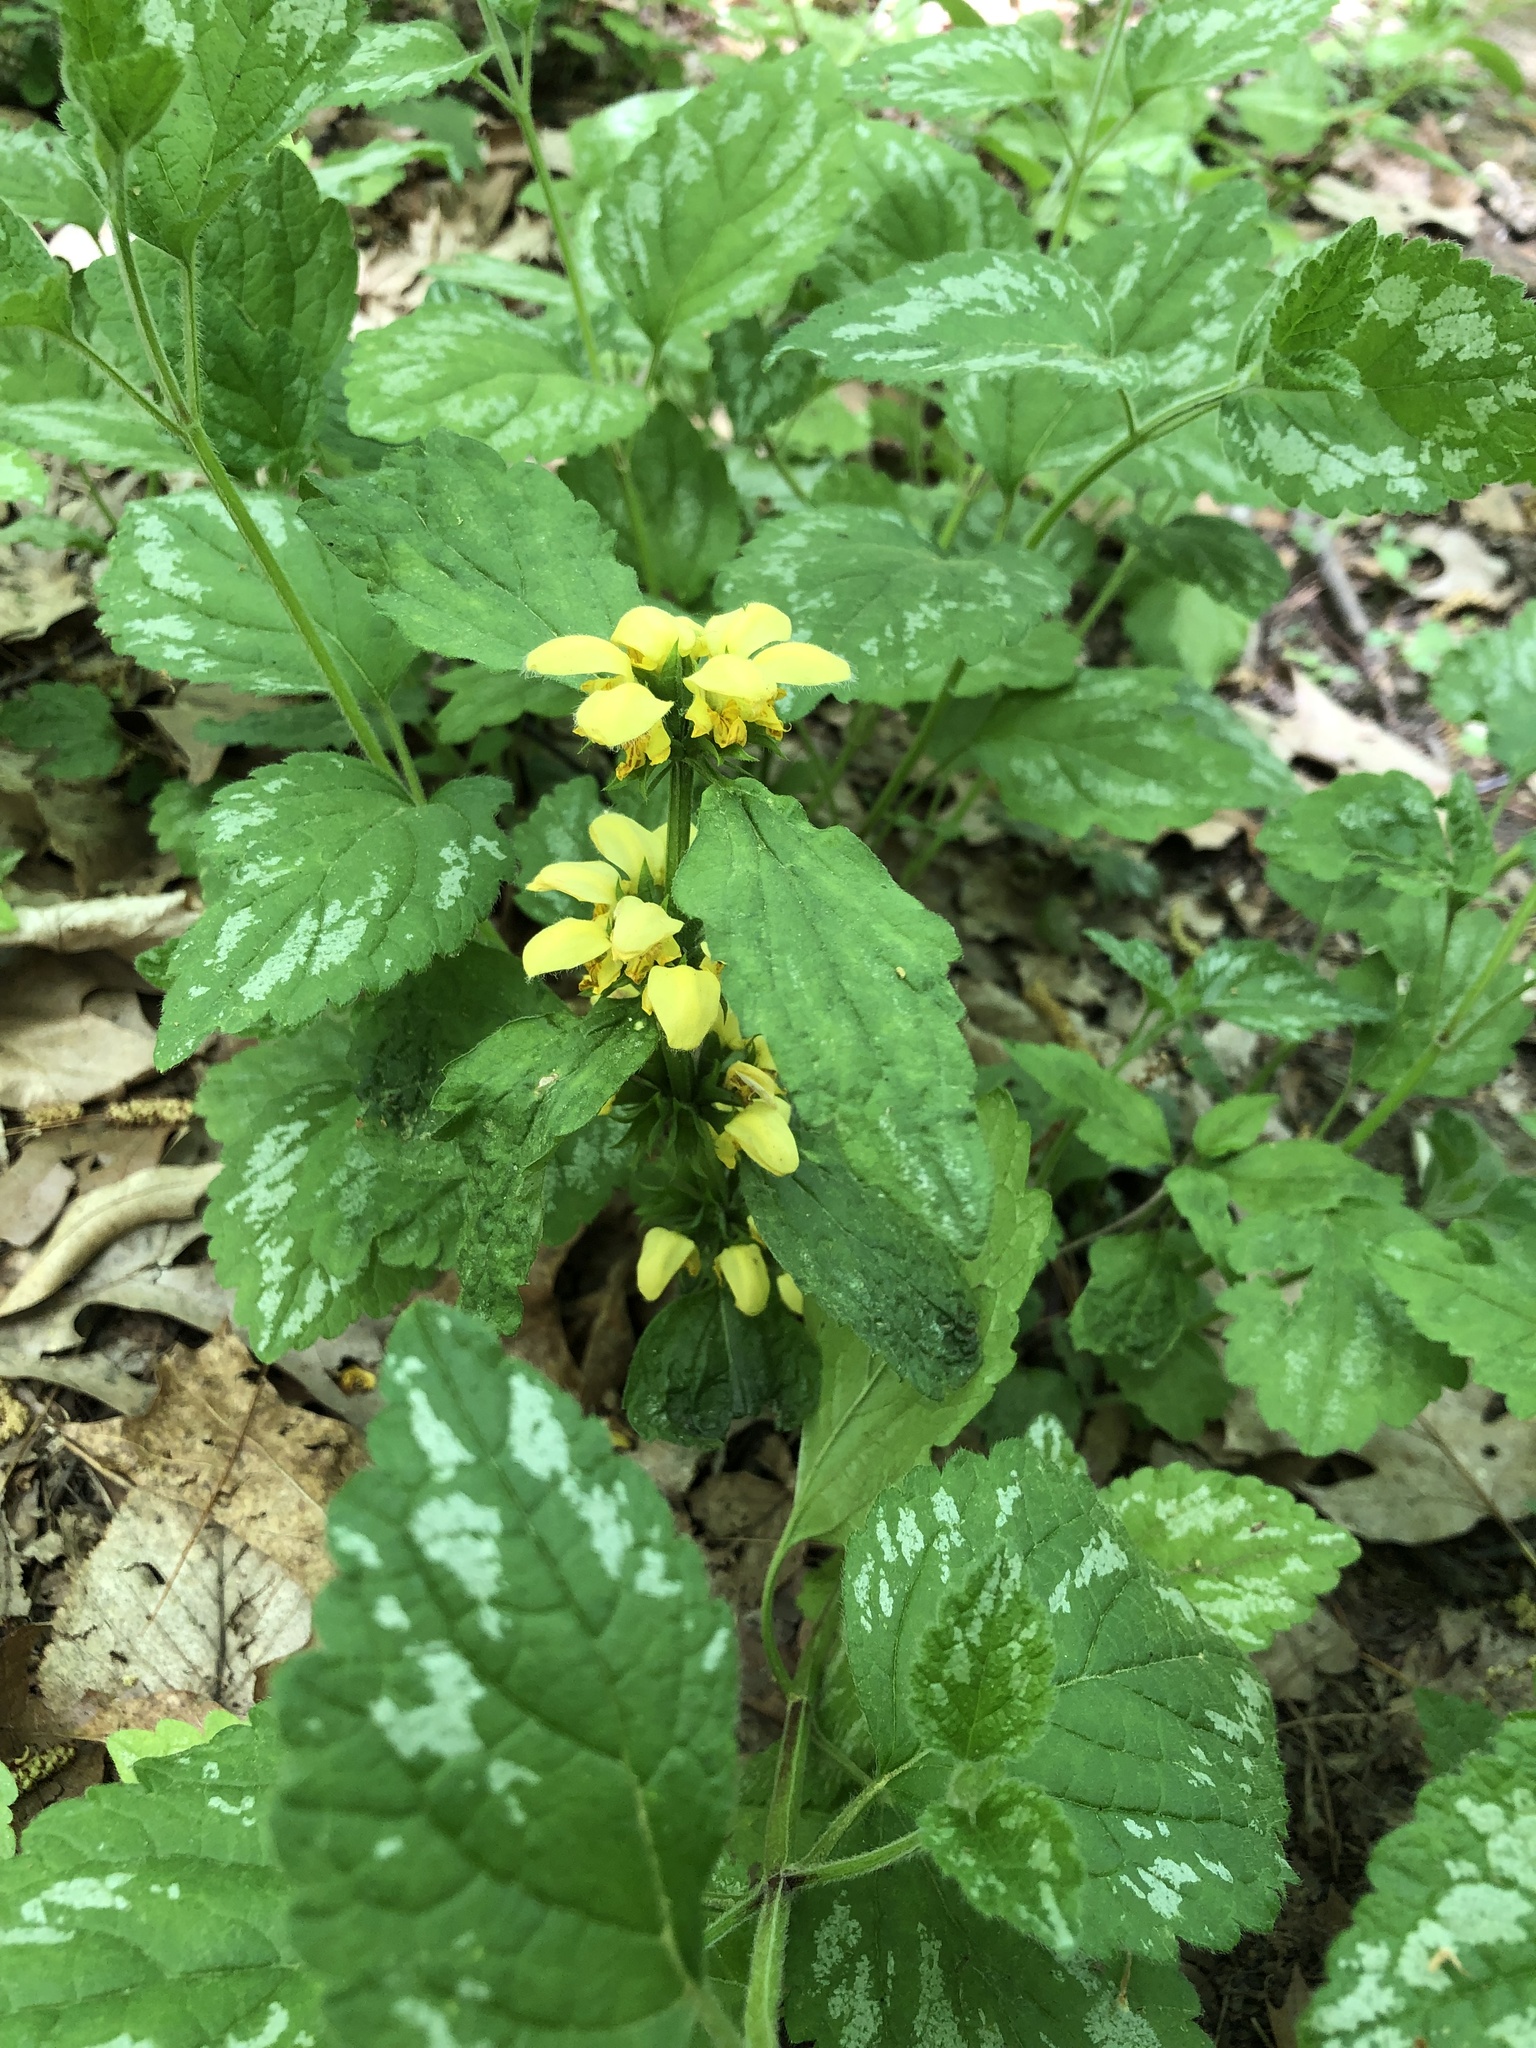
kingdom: Plantae
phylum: Tracheophyta
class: Magnoliopsida
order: Lamiales
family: Lamiaceae
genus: Lamium
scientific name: Lamium galeobdolon
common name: Yellow archangel
